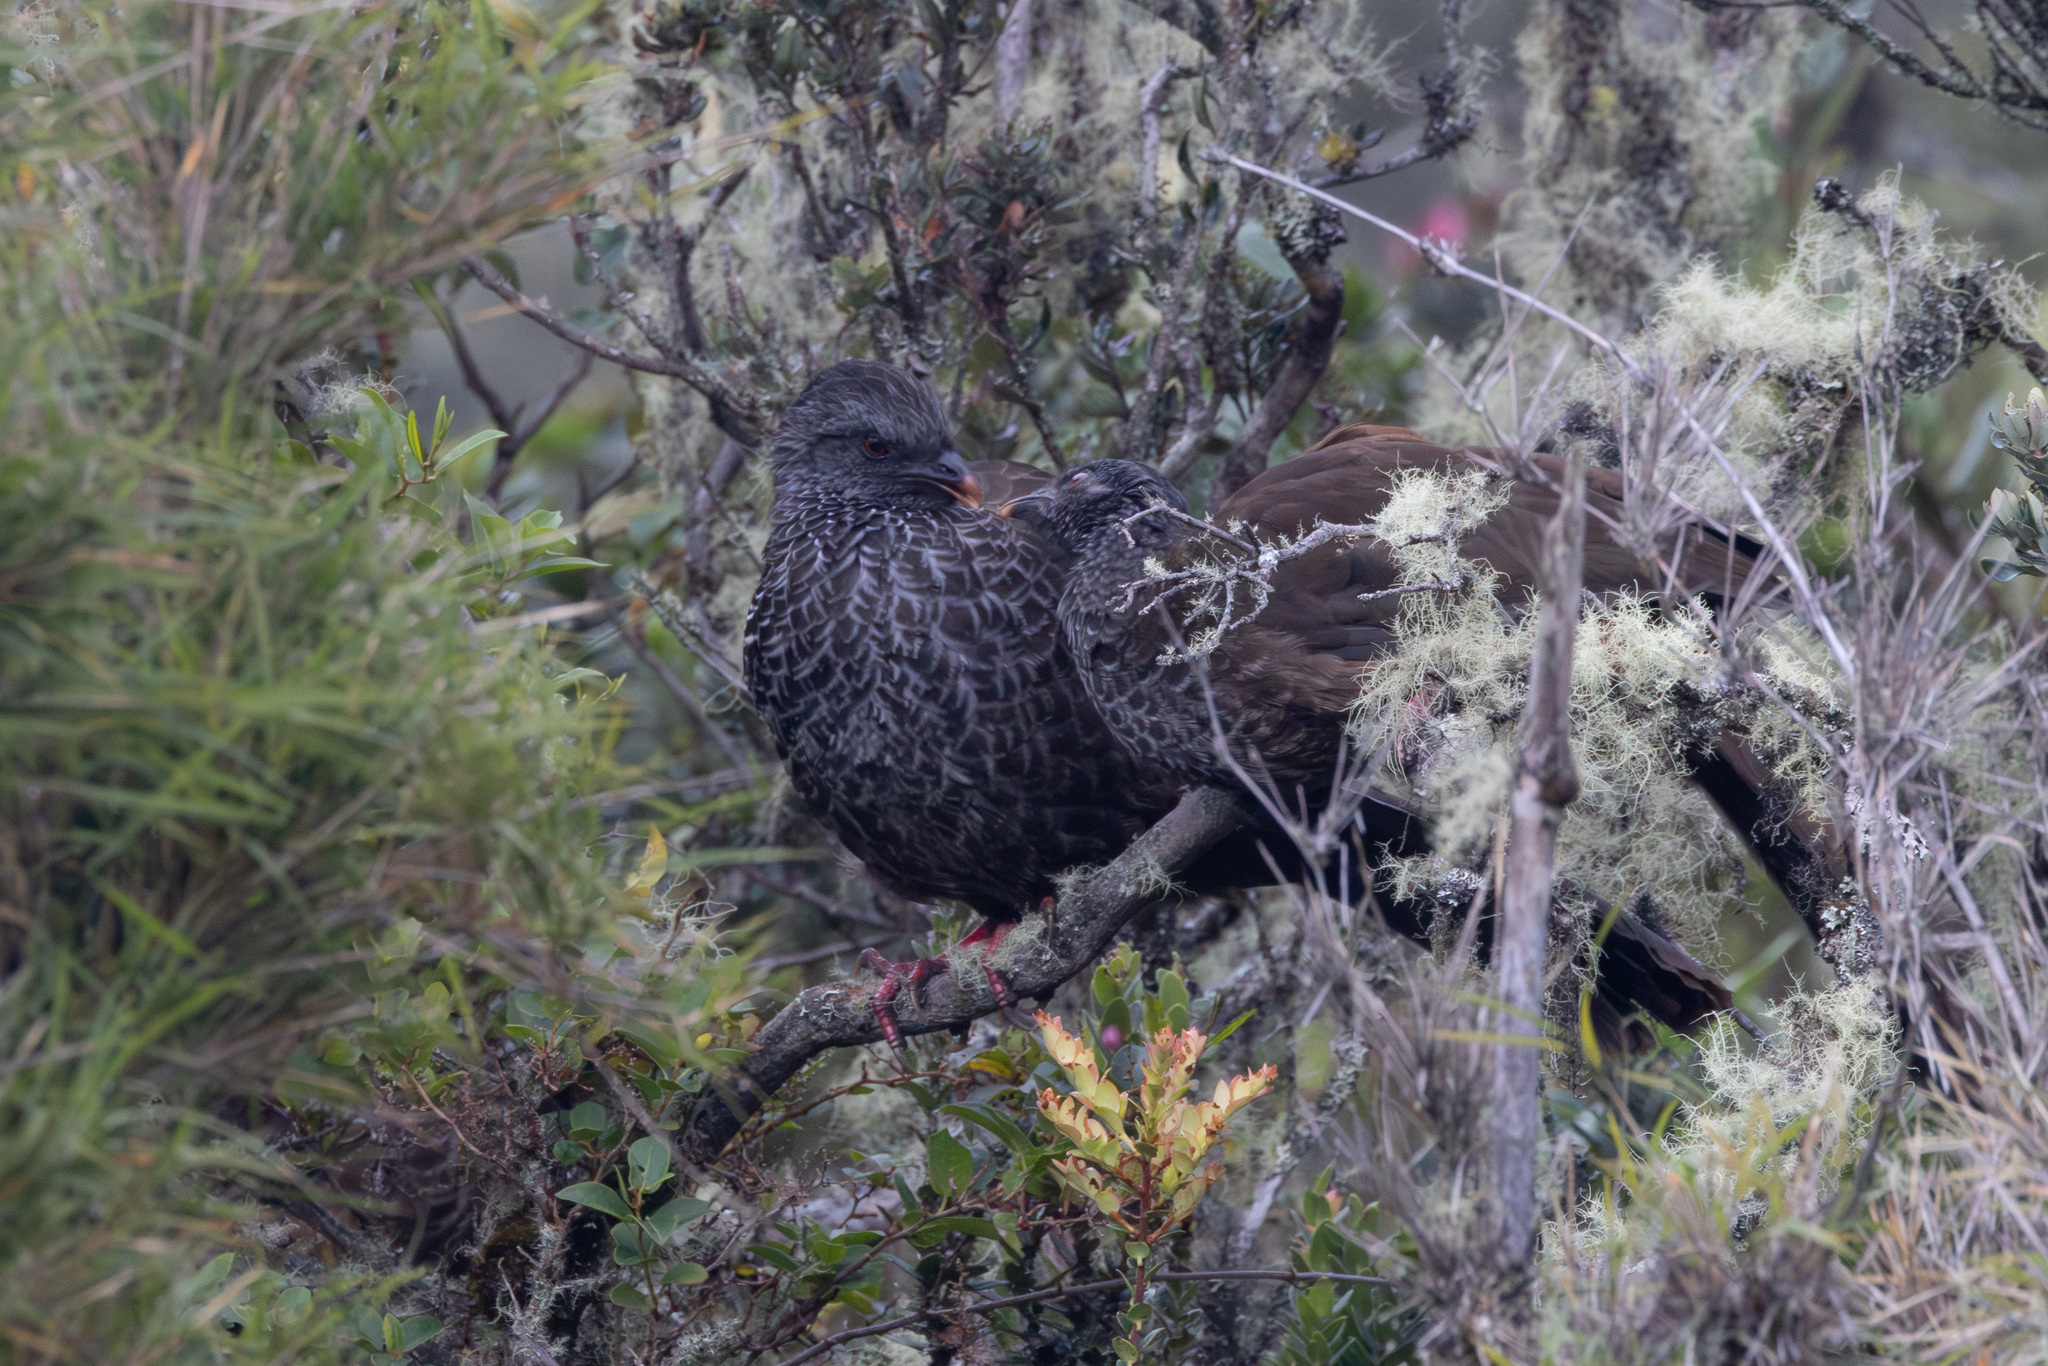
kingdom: Animalia
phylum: Chordata
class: Aves
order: Galliformes
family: Cracidae
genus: Penelope
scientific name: Penelope montagnii
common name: Andean guan
